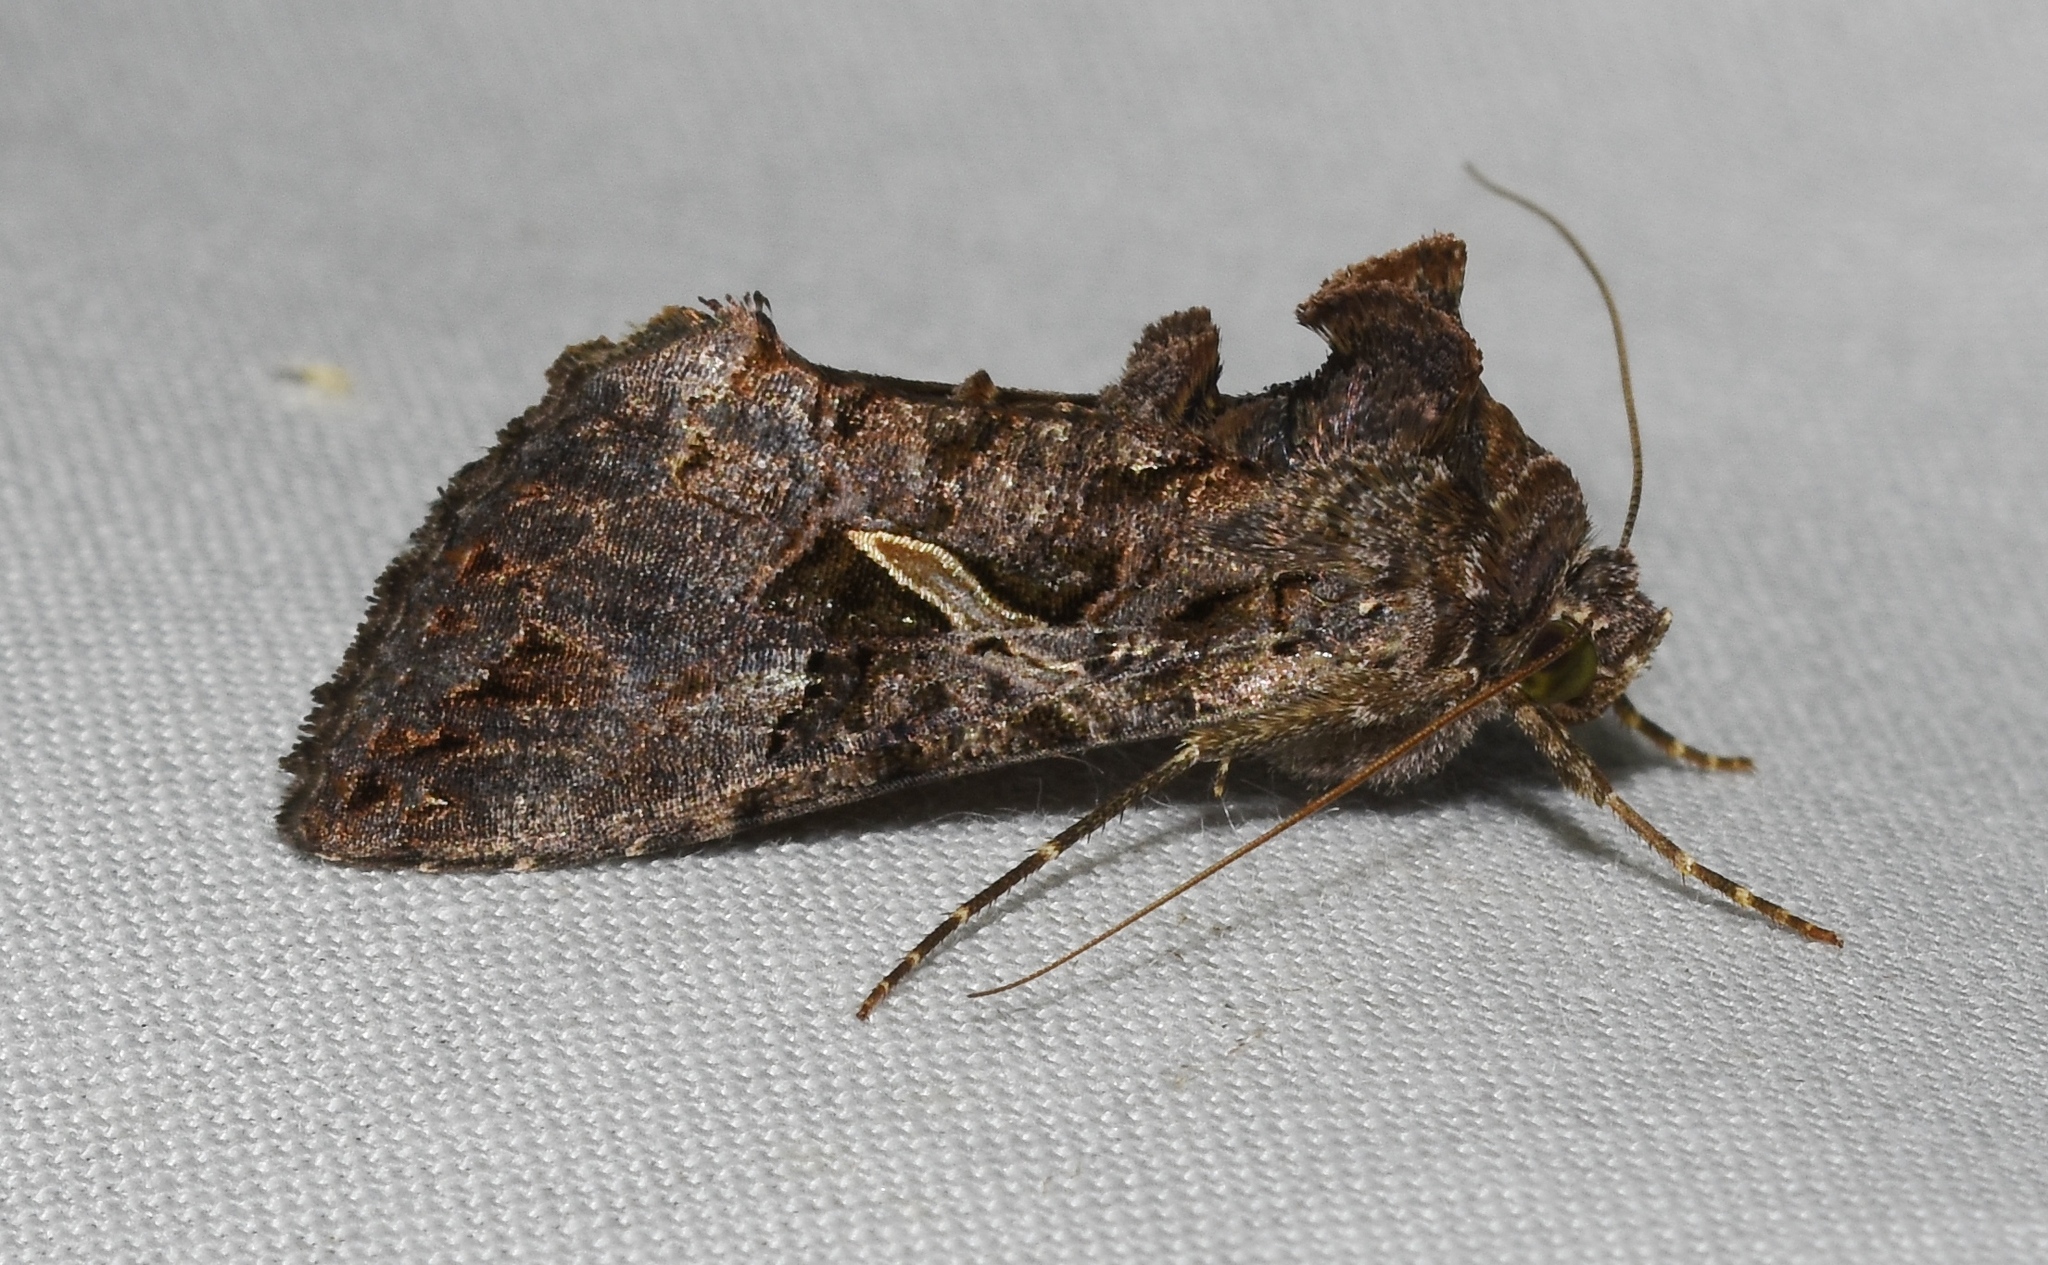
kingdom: Animalia
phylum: Arthropoda
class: Insecta
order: Lepidoptera
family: Noctuidae
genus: Ctenoplusia
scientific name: Ctenoplusia oxygramma
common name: Sharp-stigma looper moth
